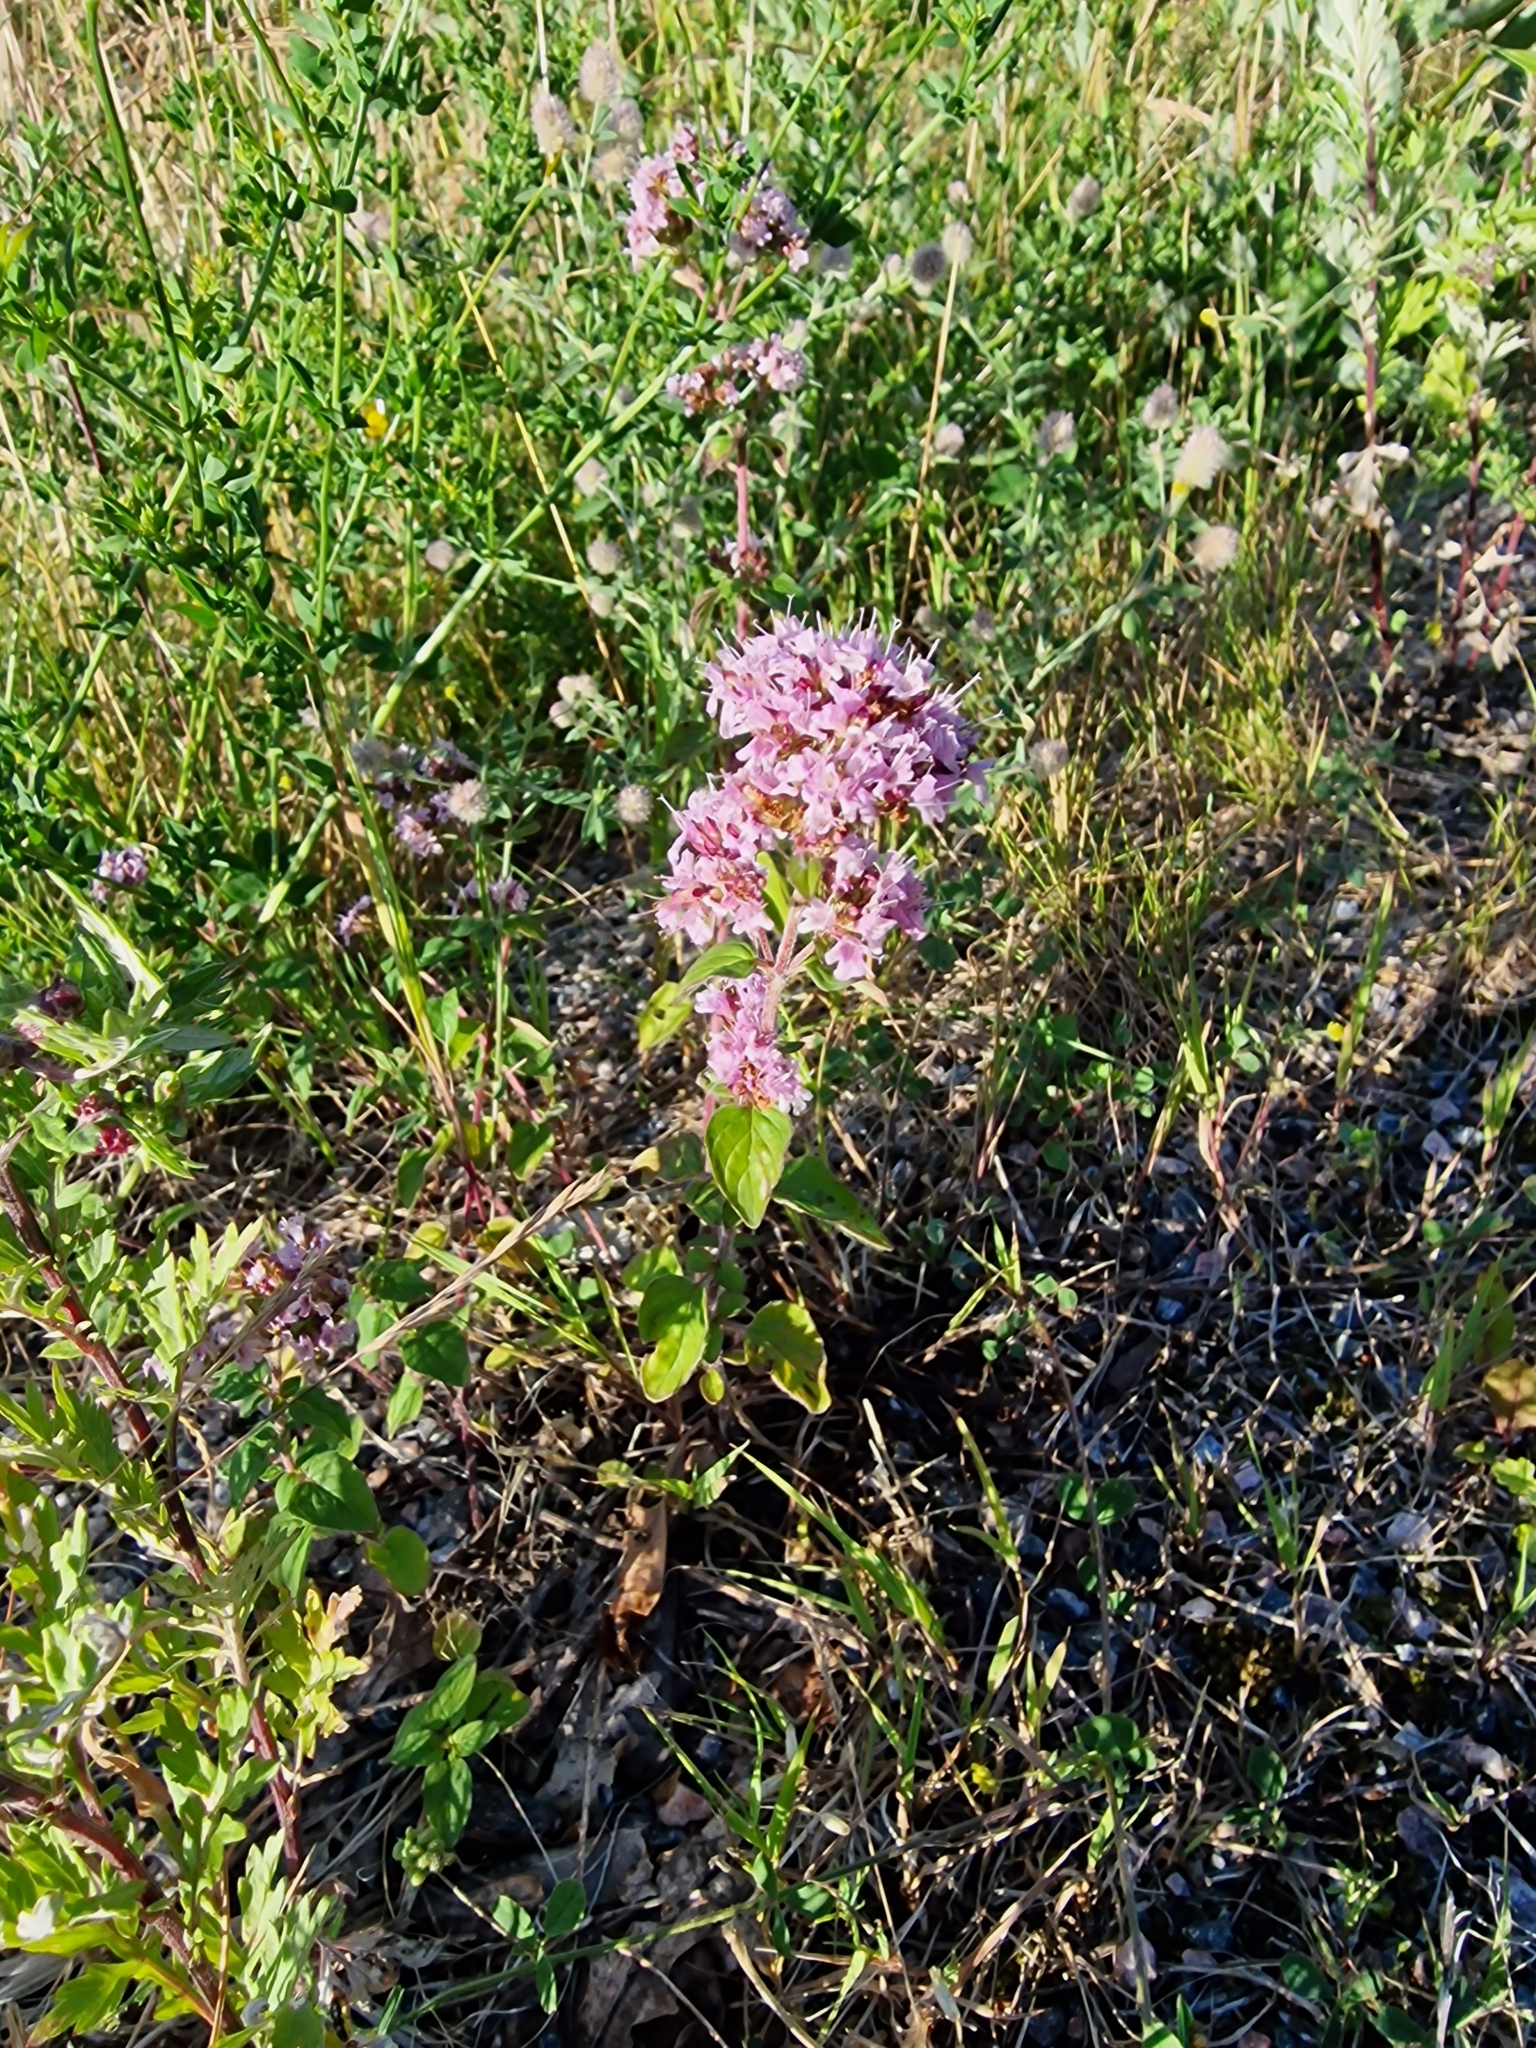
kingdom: Plantae
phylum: Tracheophyta
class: Magnoliopsida
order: Lamiales
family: Lamiaceae
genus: Origanum
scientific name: Origanum vulgare
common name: Wild marjoram
